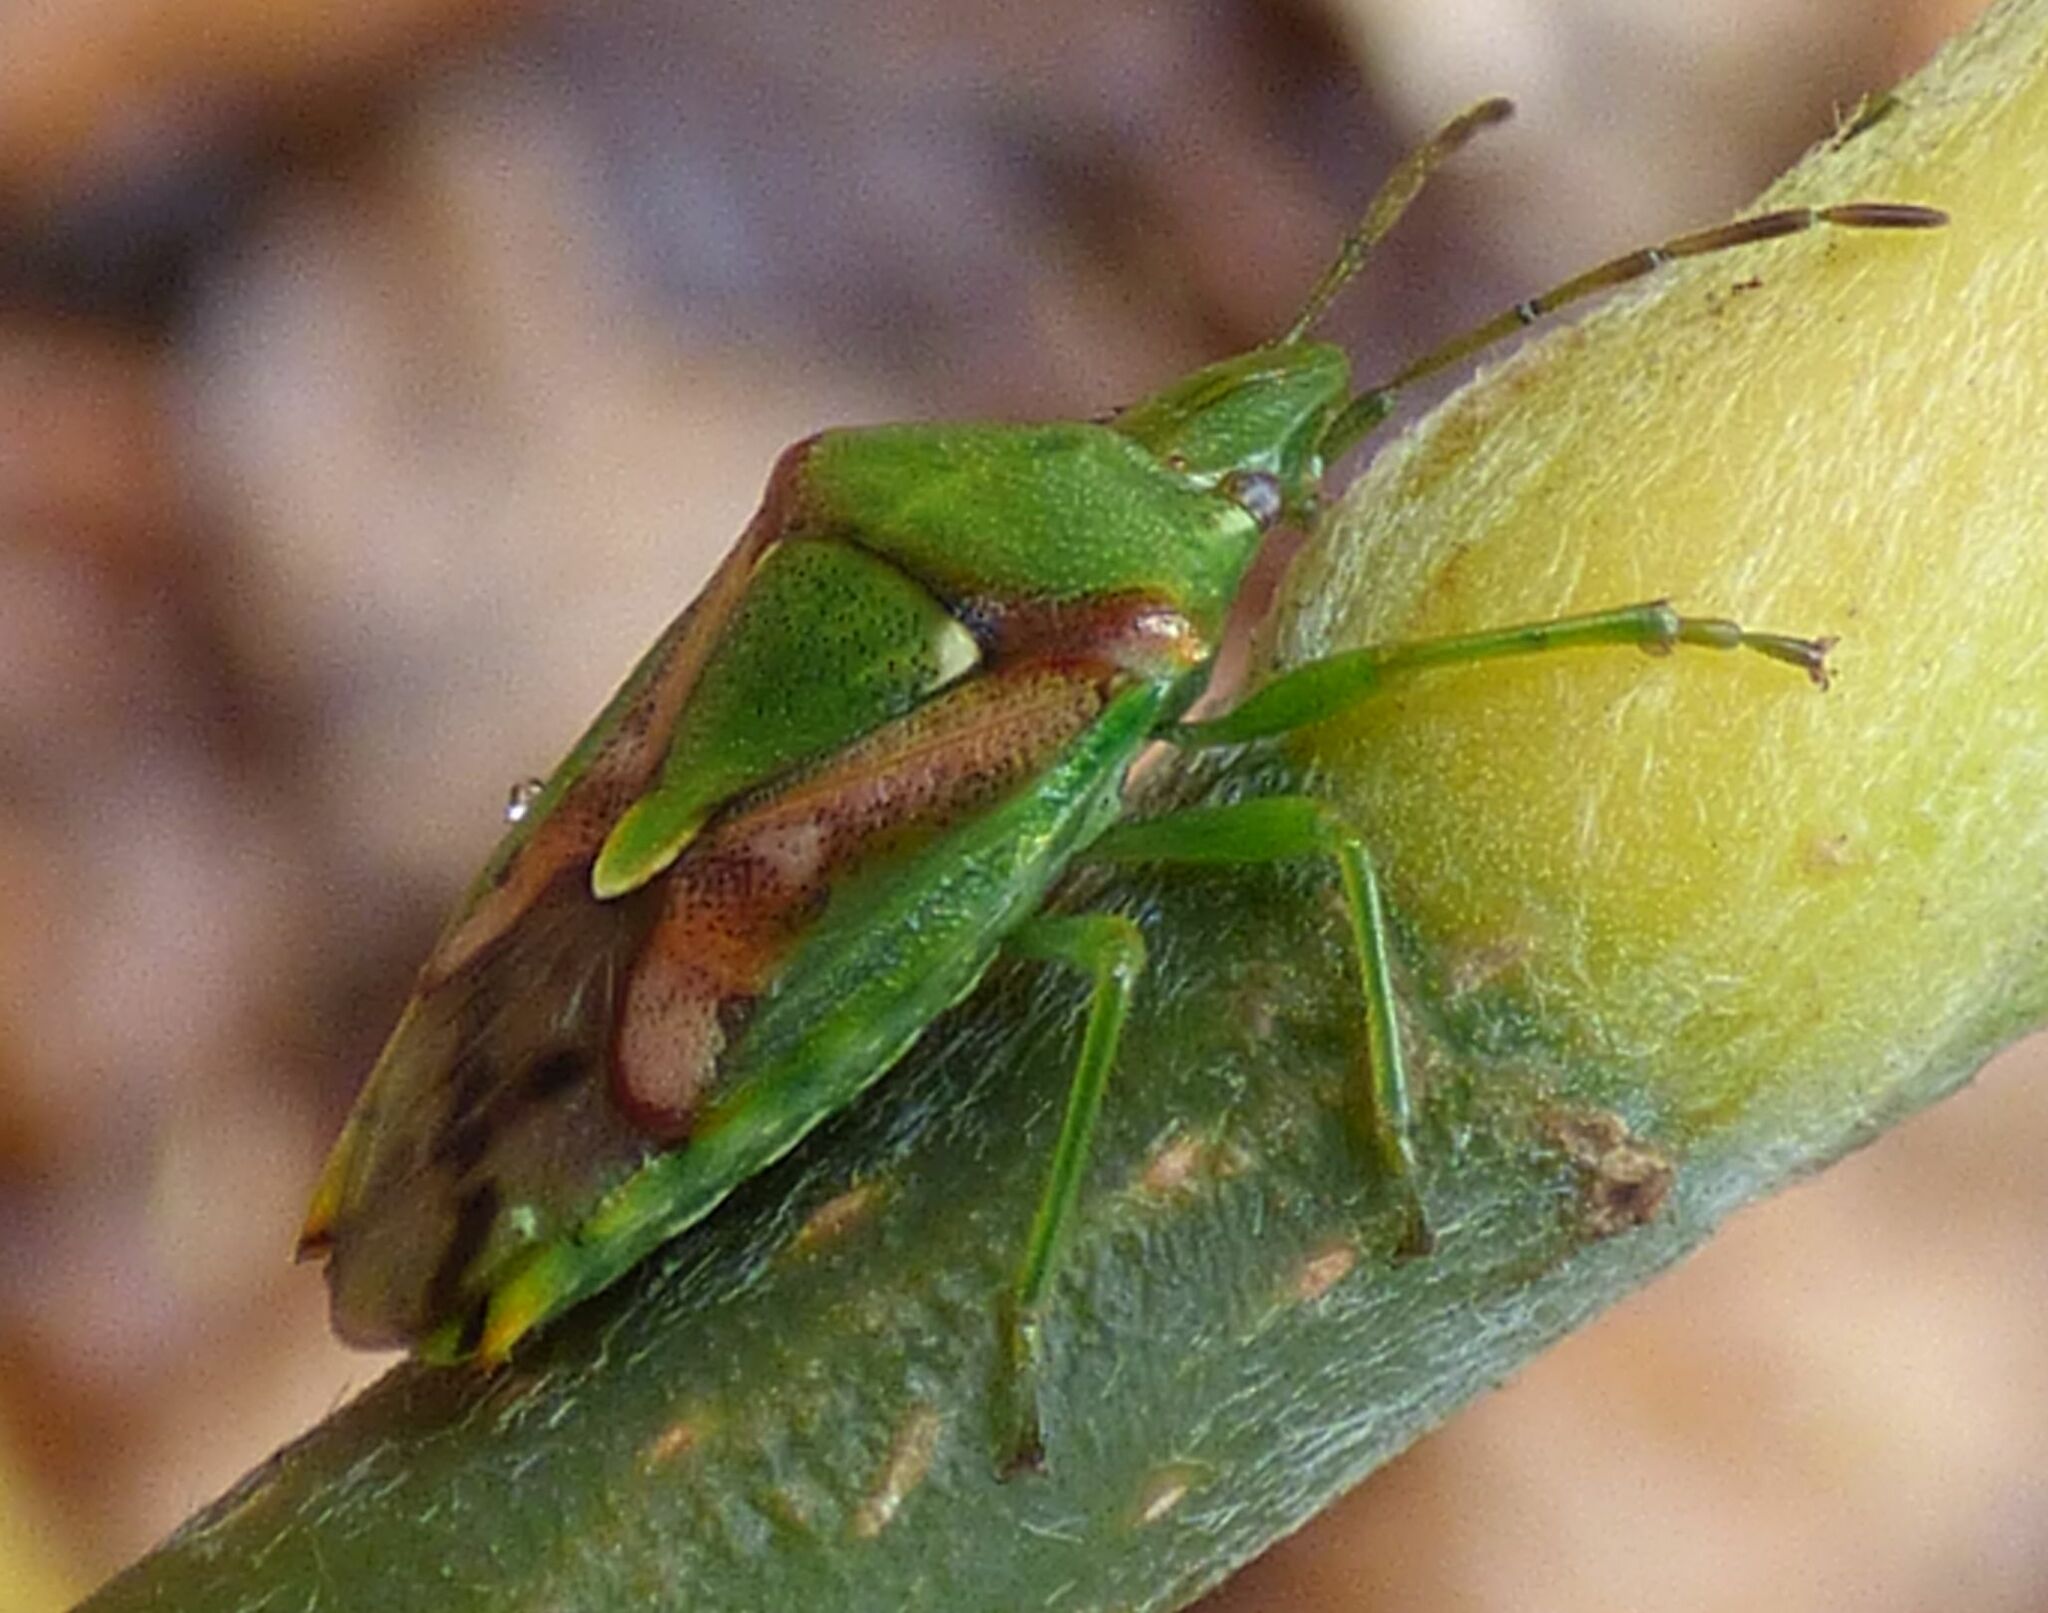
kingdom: Animalia
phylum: Arthropoda
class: Insecta
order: Hemiptera
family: Acanthosomatidae
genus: Cyphostethus
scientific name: Cyphostethus tristriatus
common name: Juniper shieldbug
